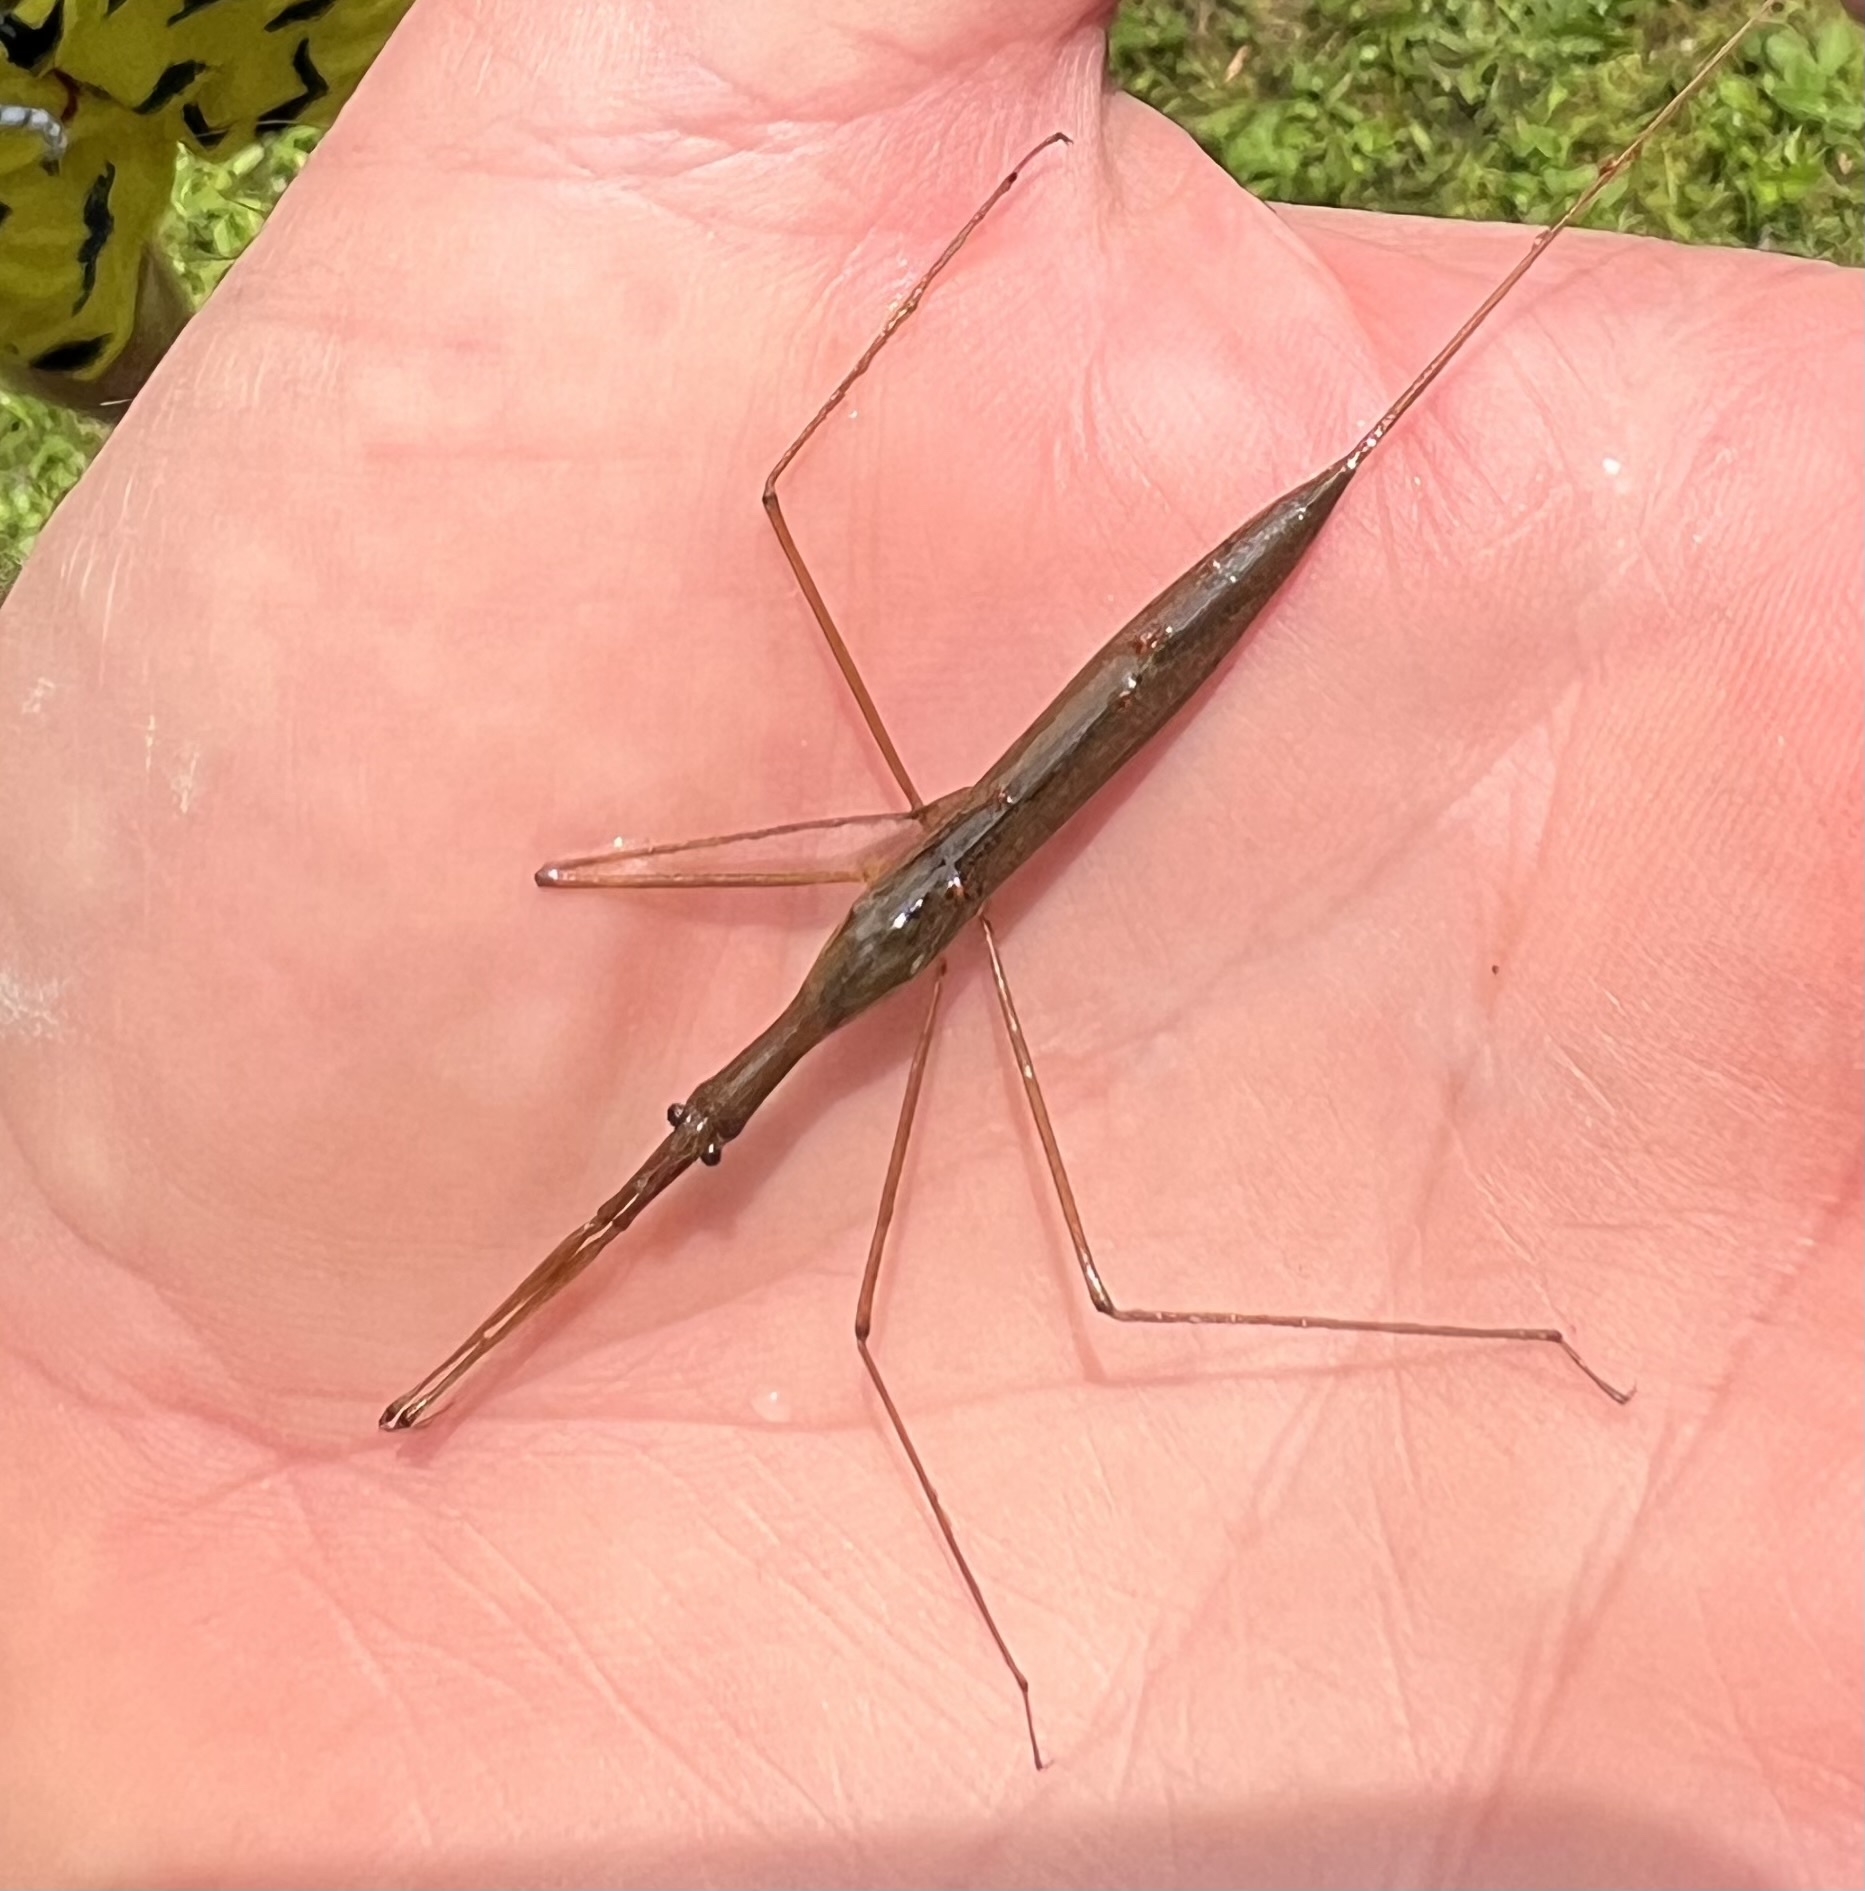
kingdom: Animalia
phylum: Arthropoda
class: Insecta
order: Hemiptera
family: Nepidae
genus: Ranatra
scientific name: Ranatra
